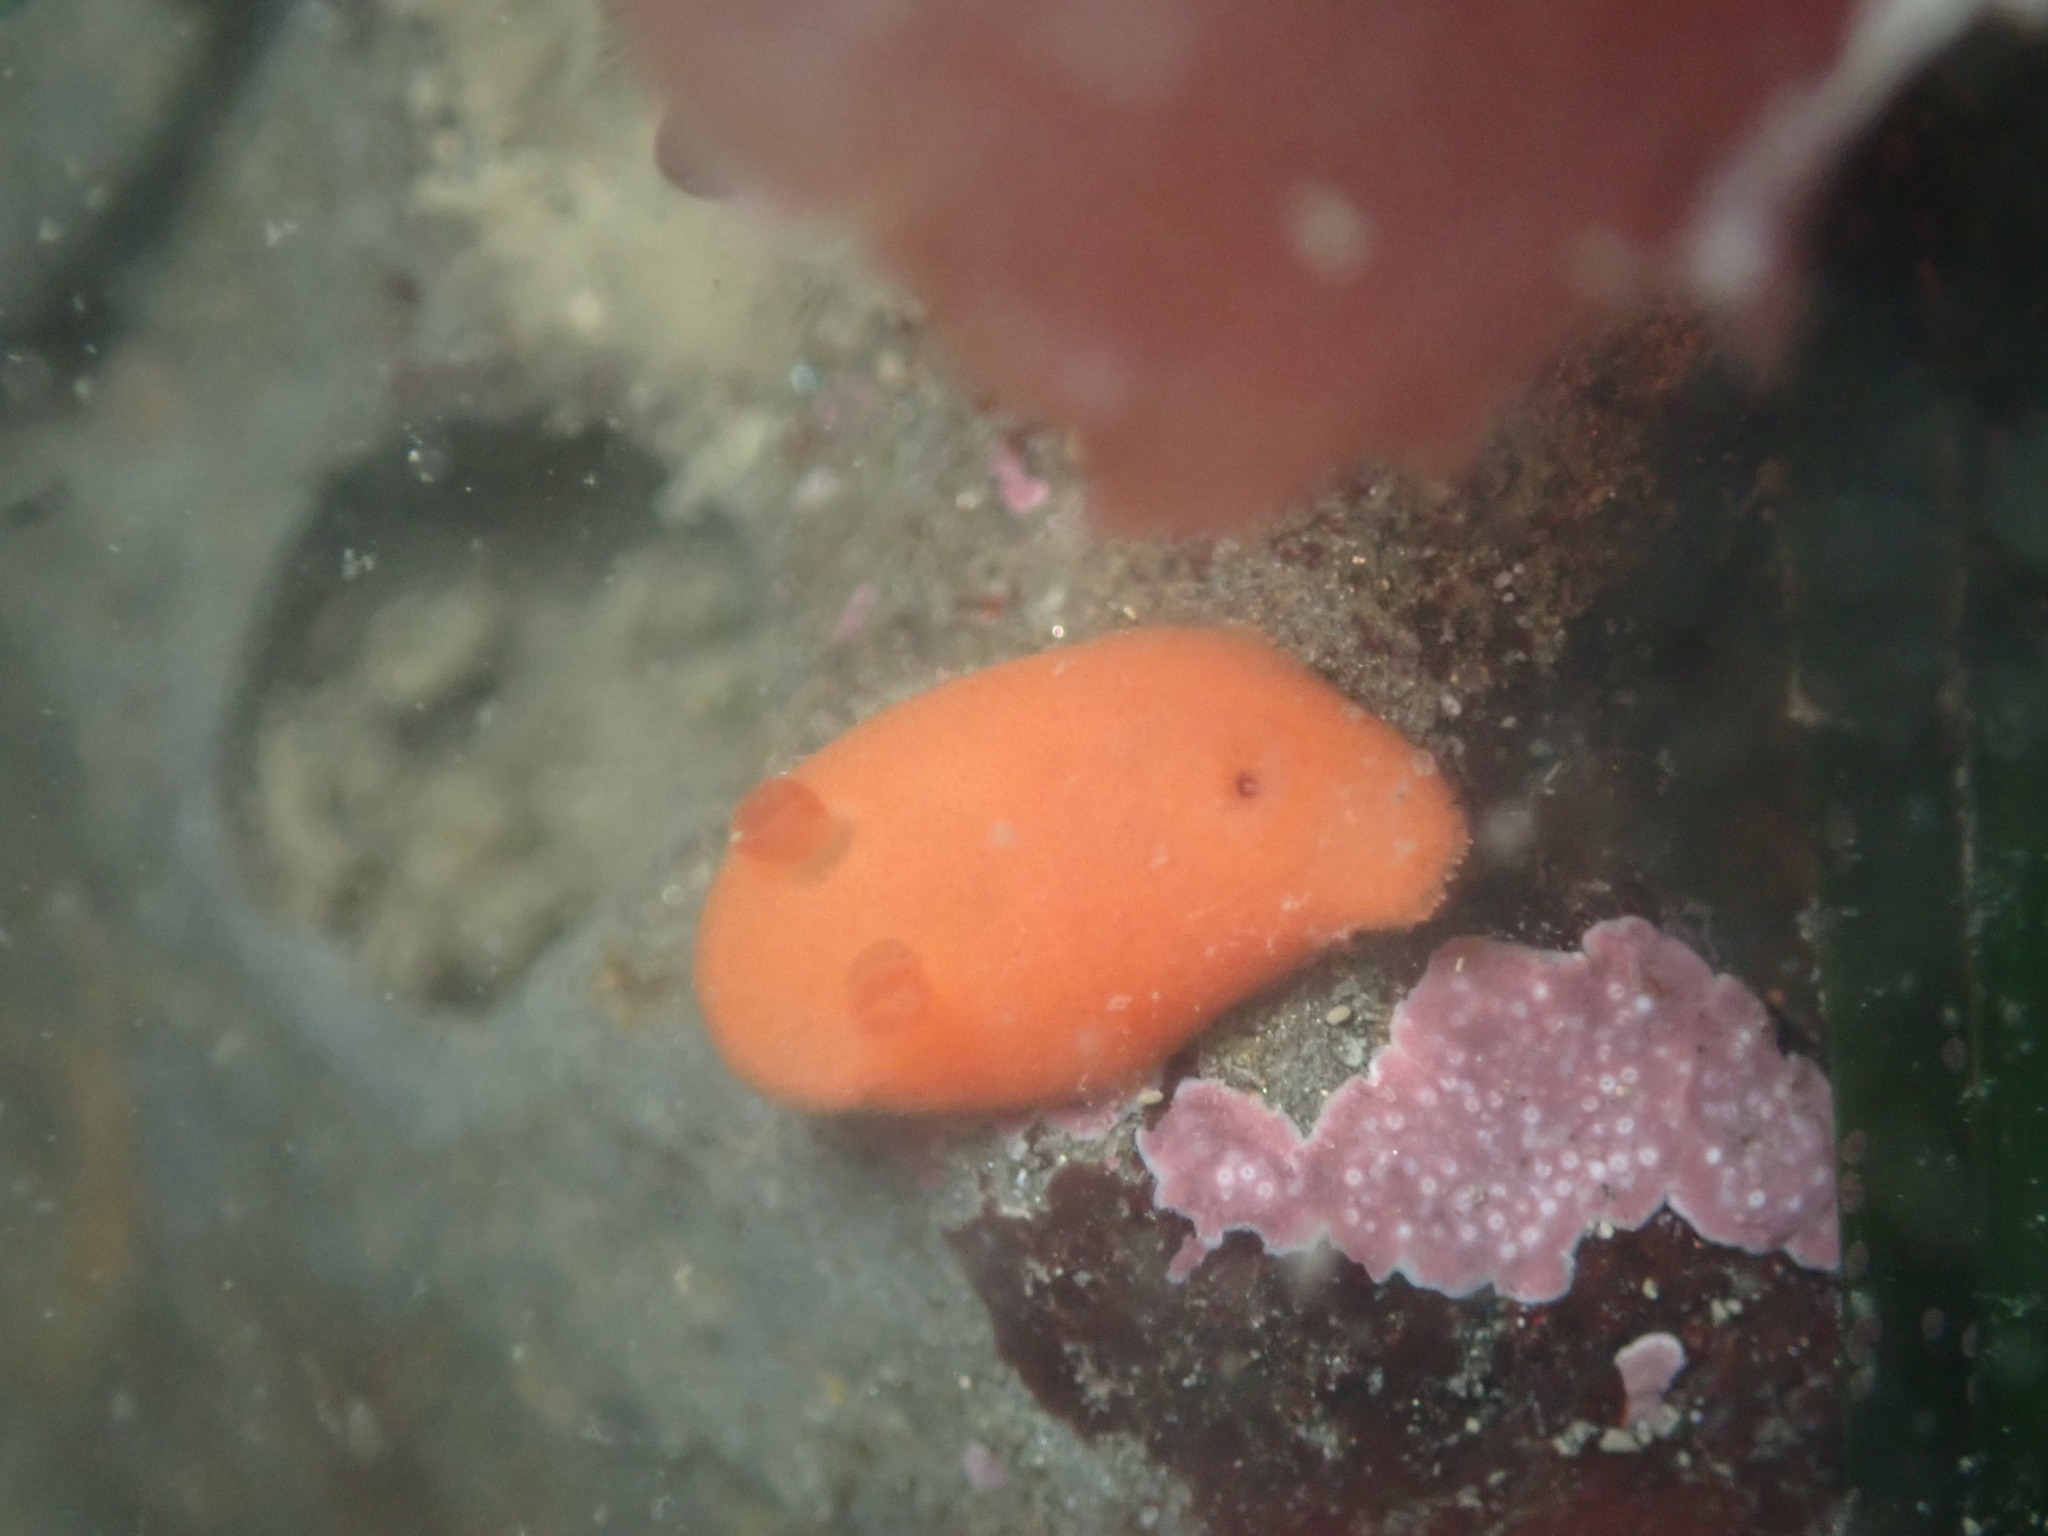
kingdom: Animalia
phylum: Mollusca
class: Gastropoda
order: Nudibranchia
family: Discodorididae
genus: Rostanga
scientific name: Rostanga pulchra
